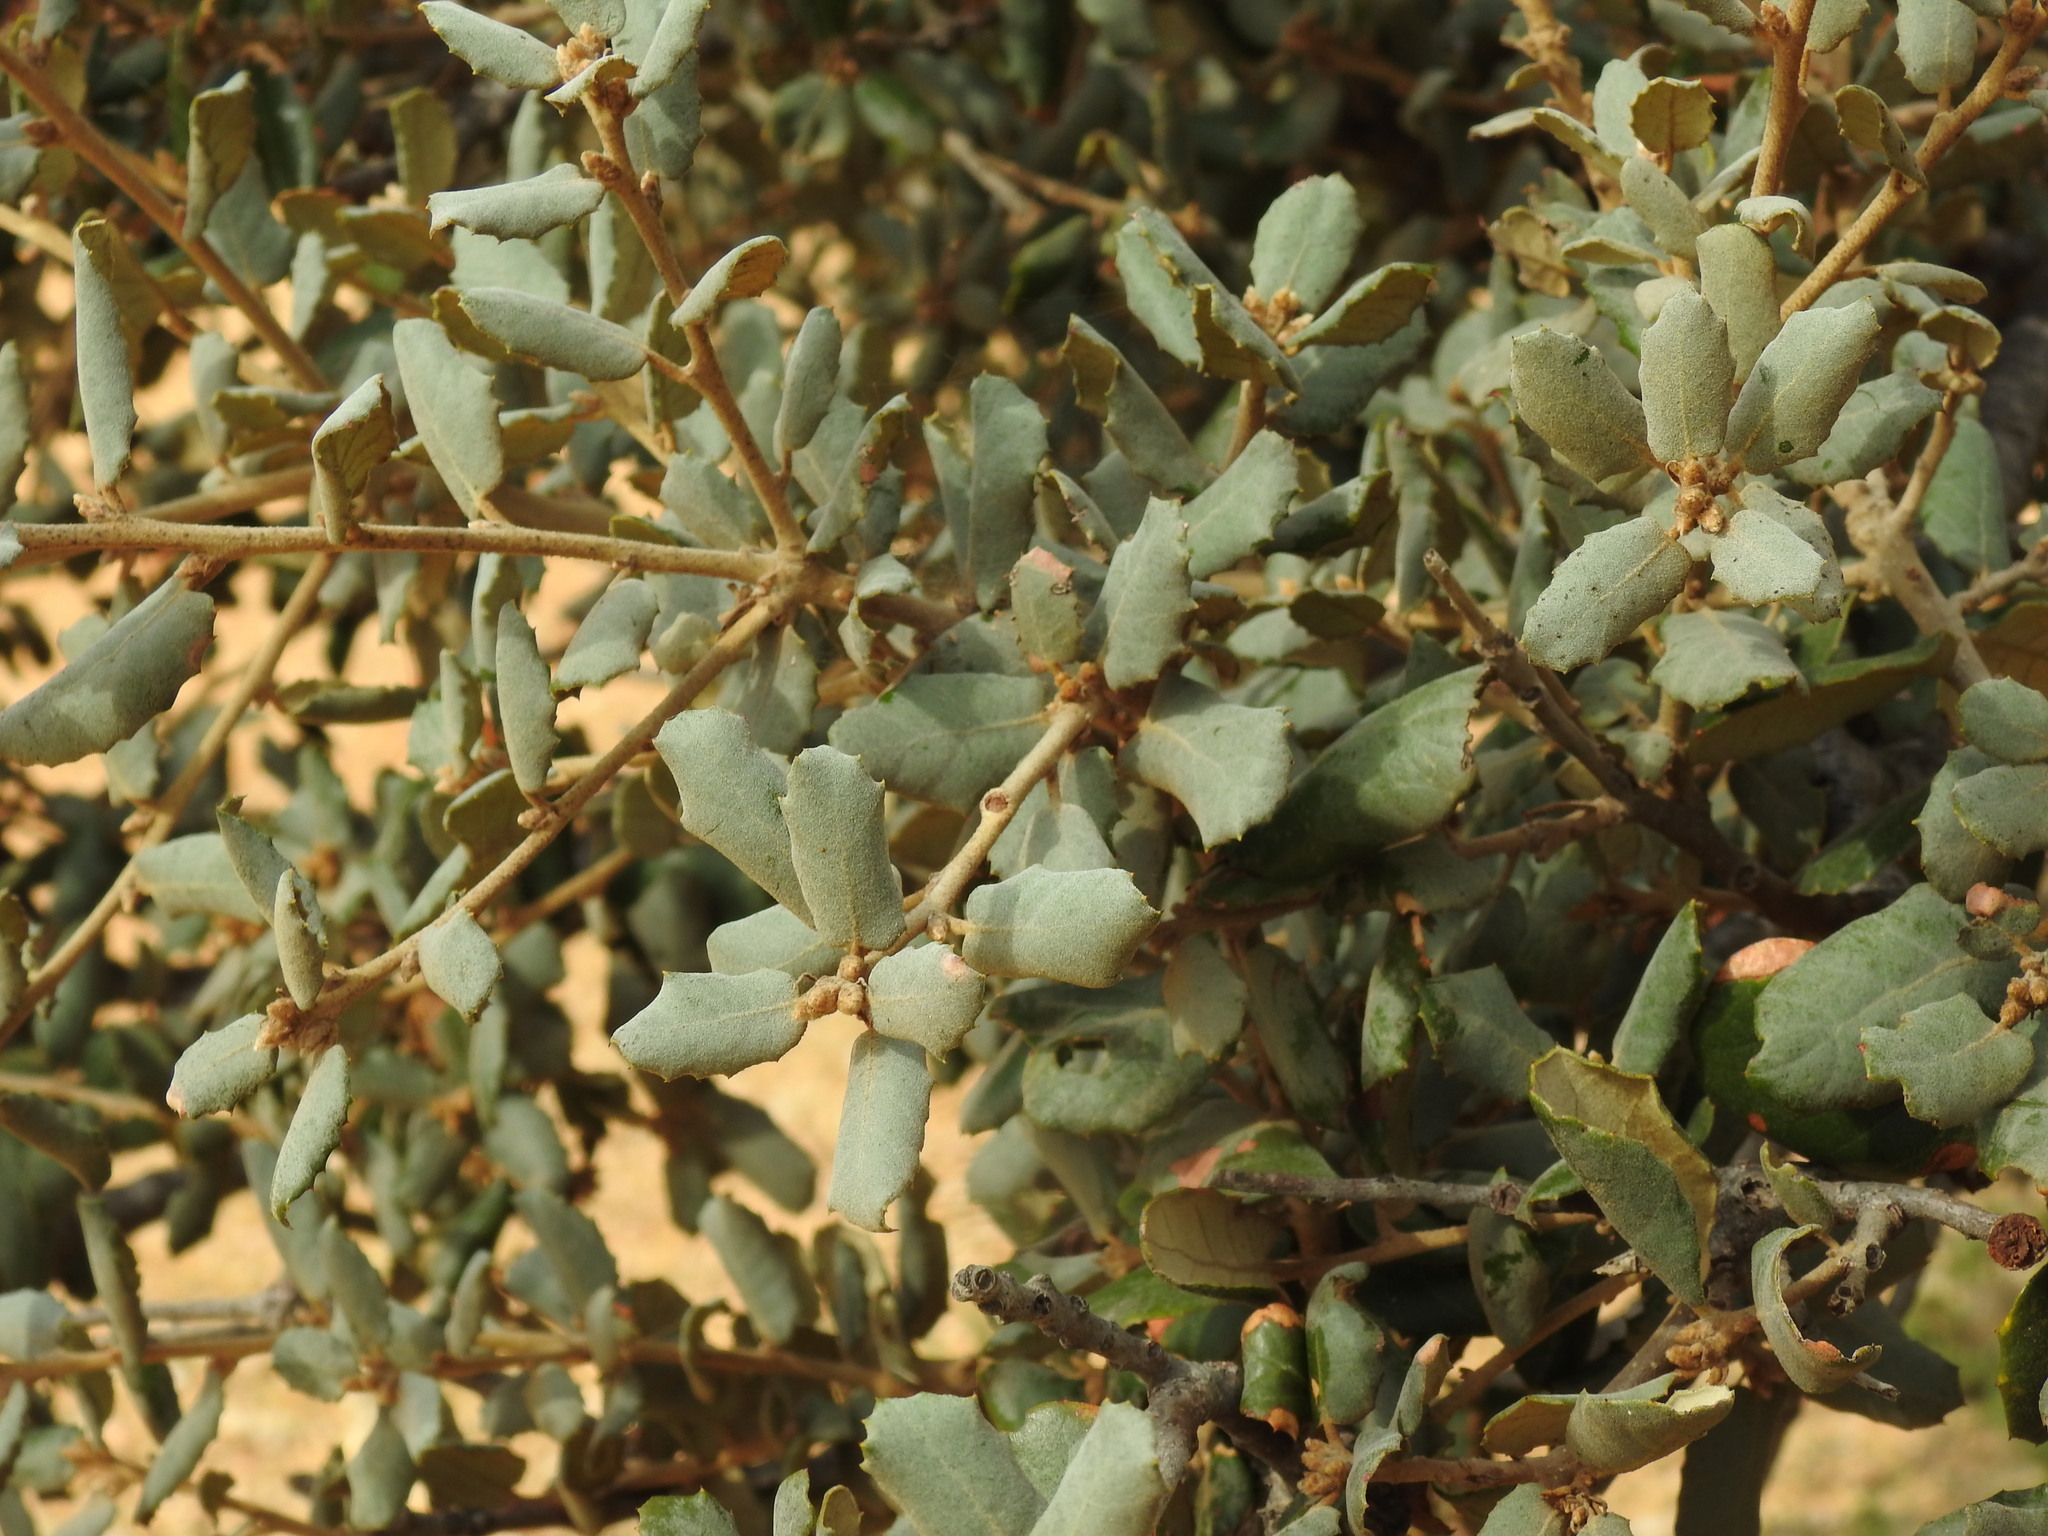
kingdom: Plantae
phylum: Tracheophyta
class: Magnoliopsida
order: Fagales
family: Fagaceae
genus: Quercus
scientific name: Quercus rotundifolia
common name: Holm oak
